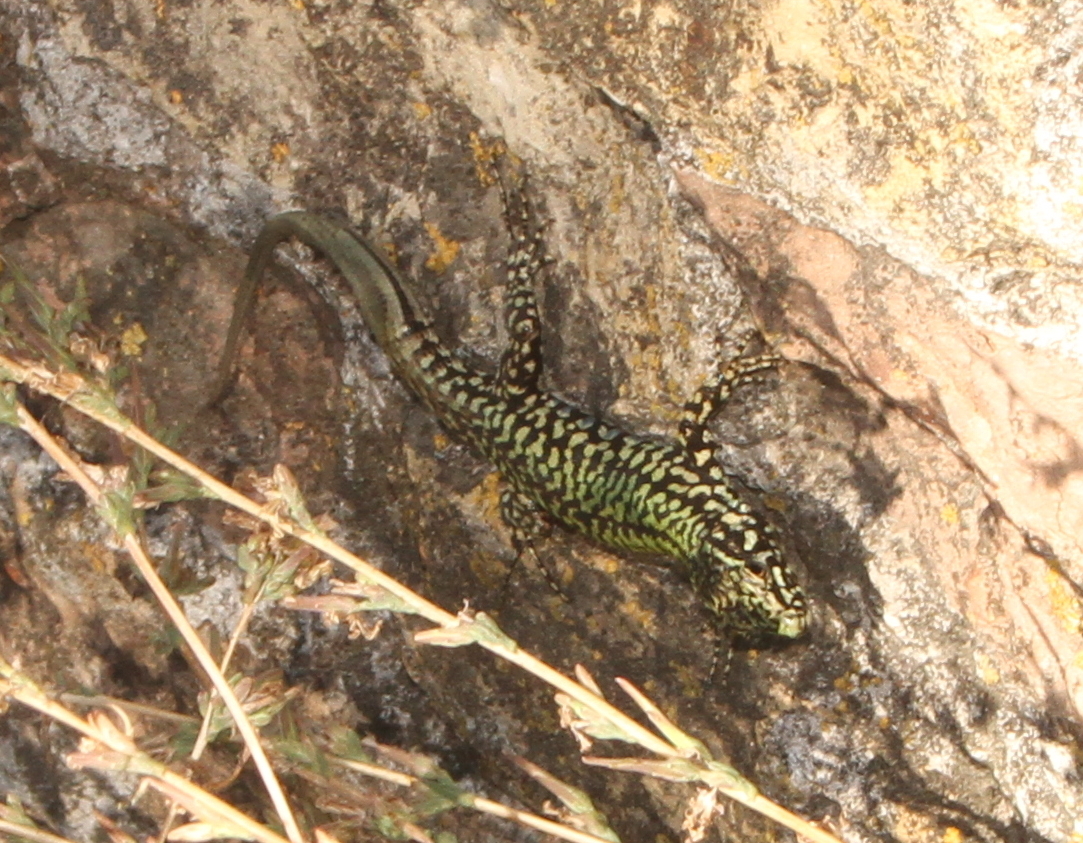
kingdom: Animalia
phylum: Chordata
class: Squamata
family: Lacertidae
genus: Podarcis
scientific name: Podarcis muralis
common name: Common wall lizard
